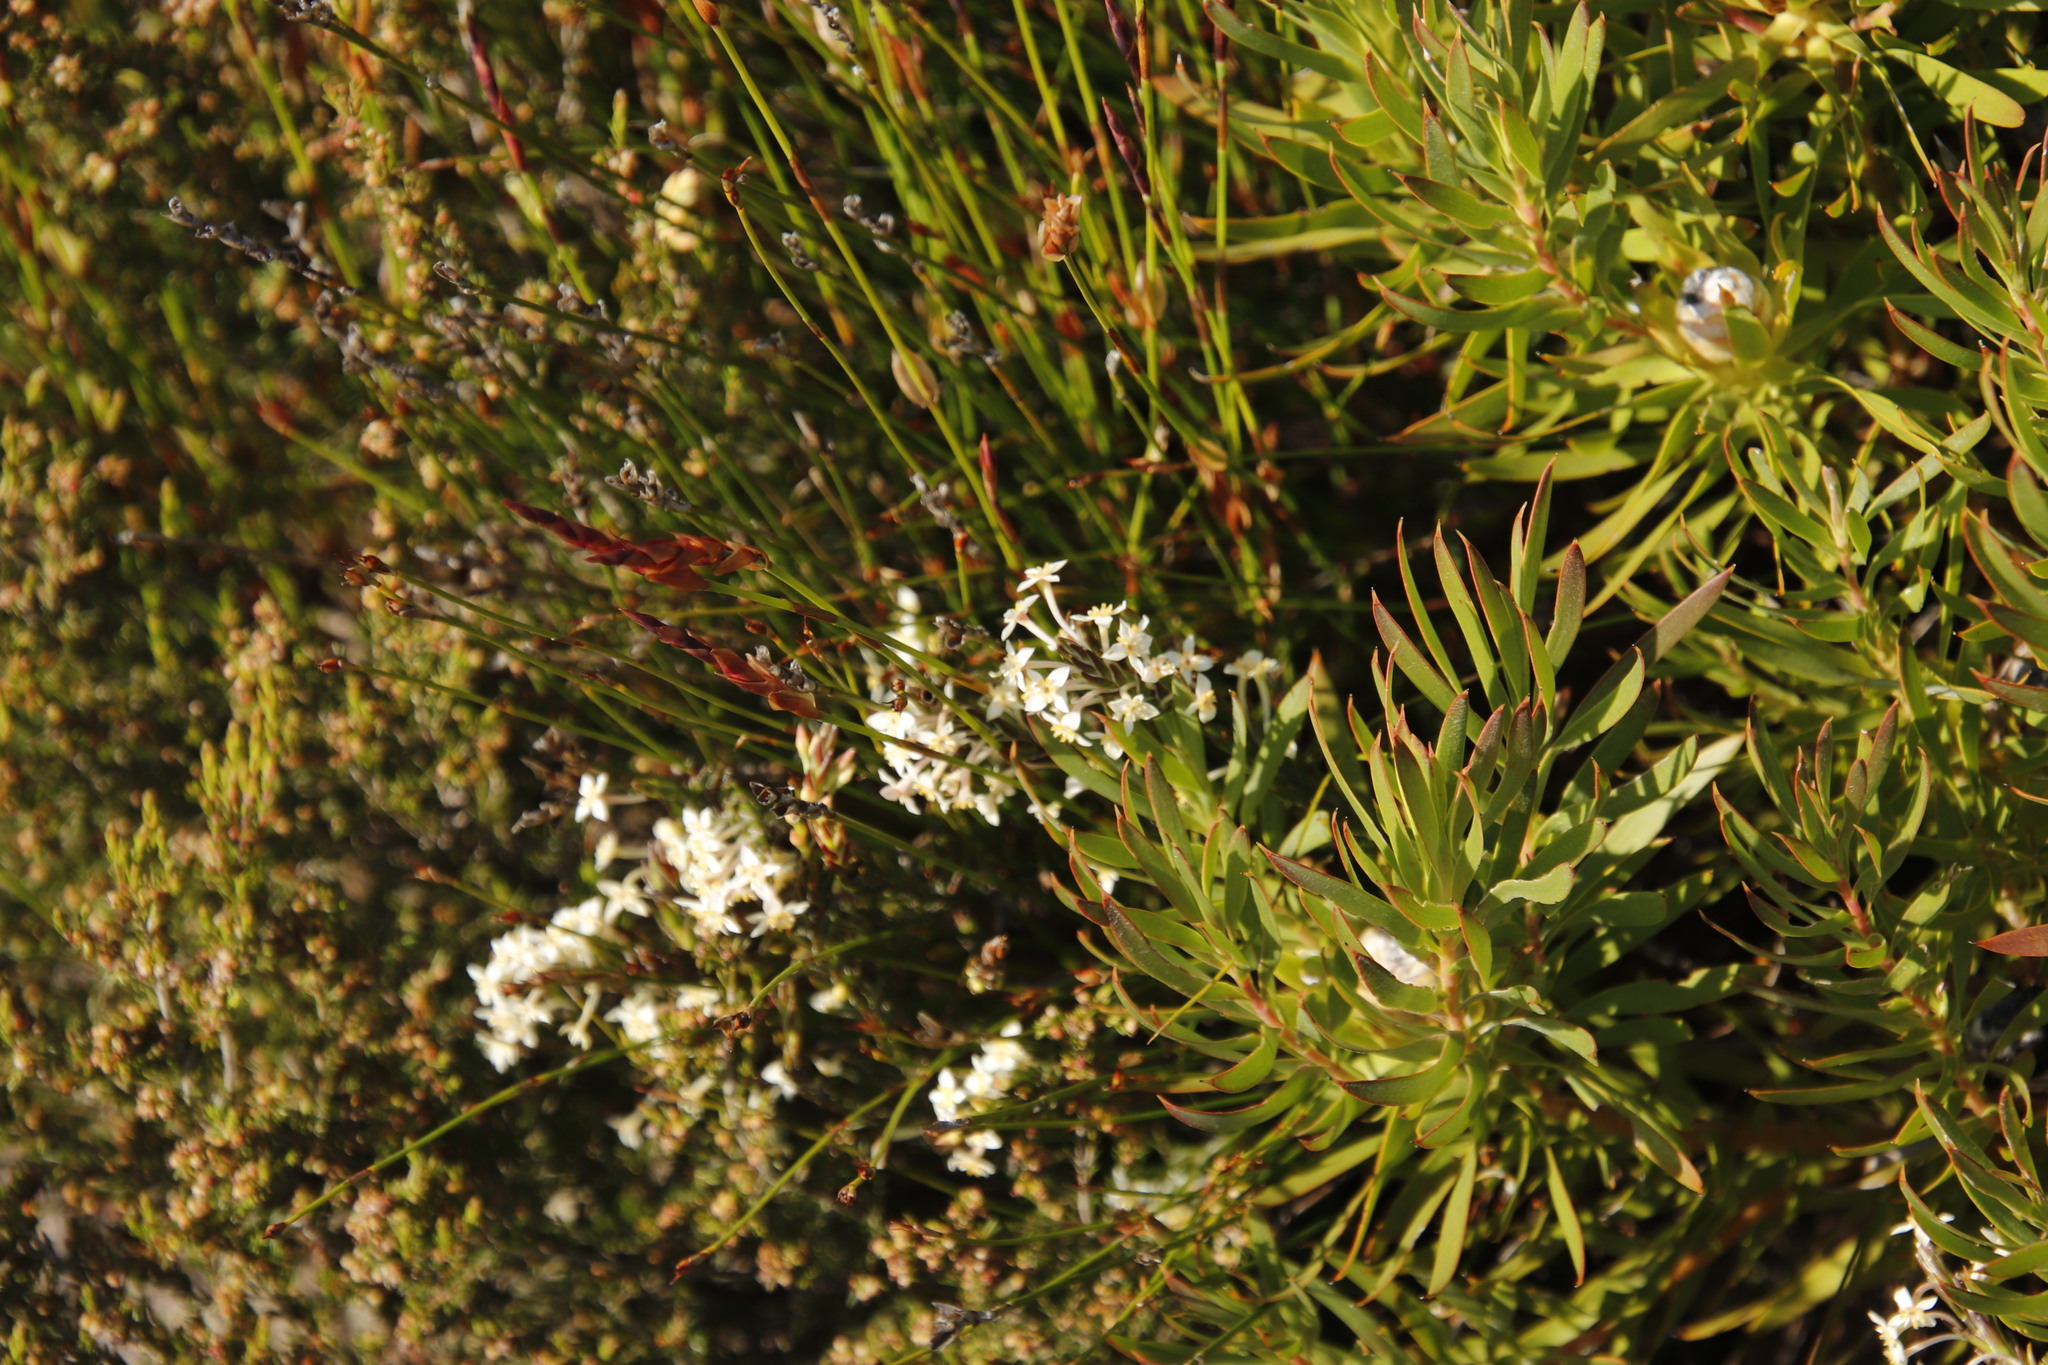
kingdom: Plantae
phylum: Tracheophyta
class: Magnoliopsida
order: Proteales
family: Proteaceae
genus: Leucadendron
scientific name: Leucadendron xanthoconus
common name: Sickle-leaf conebush
